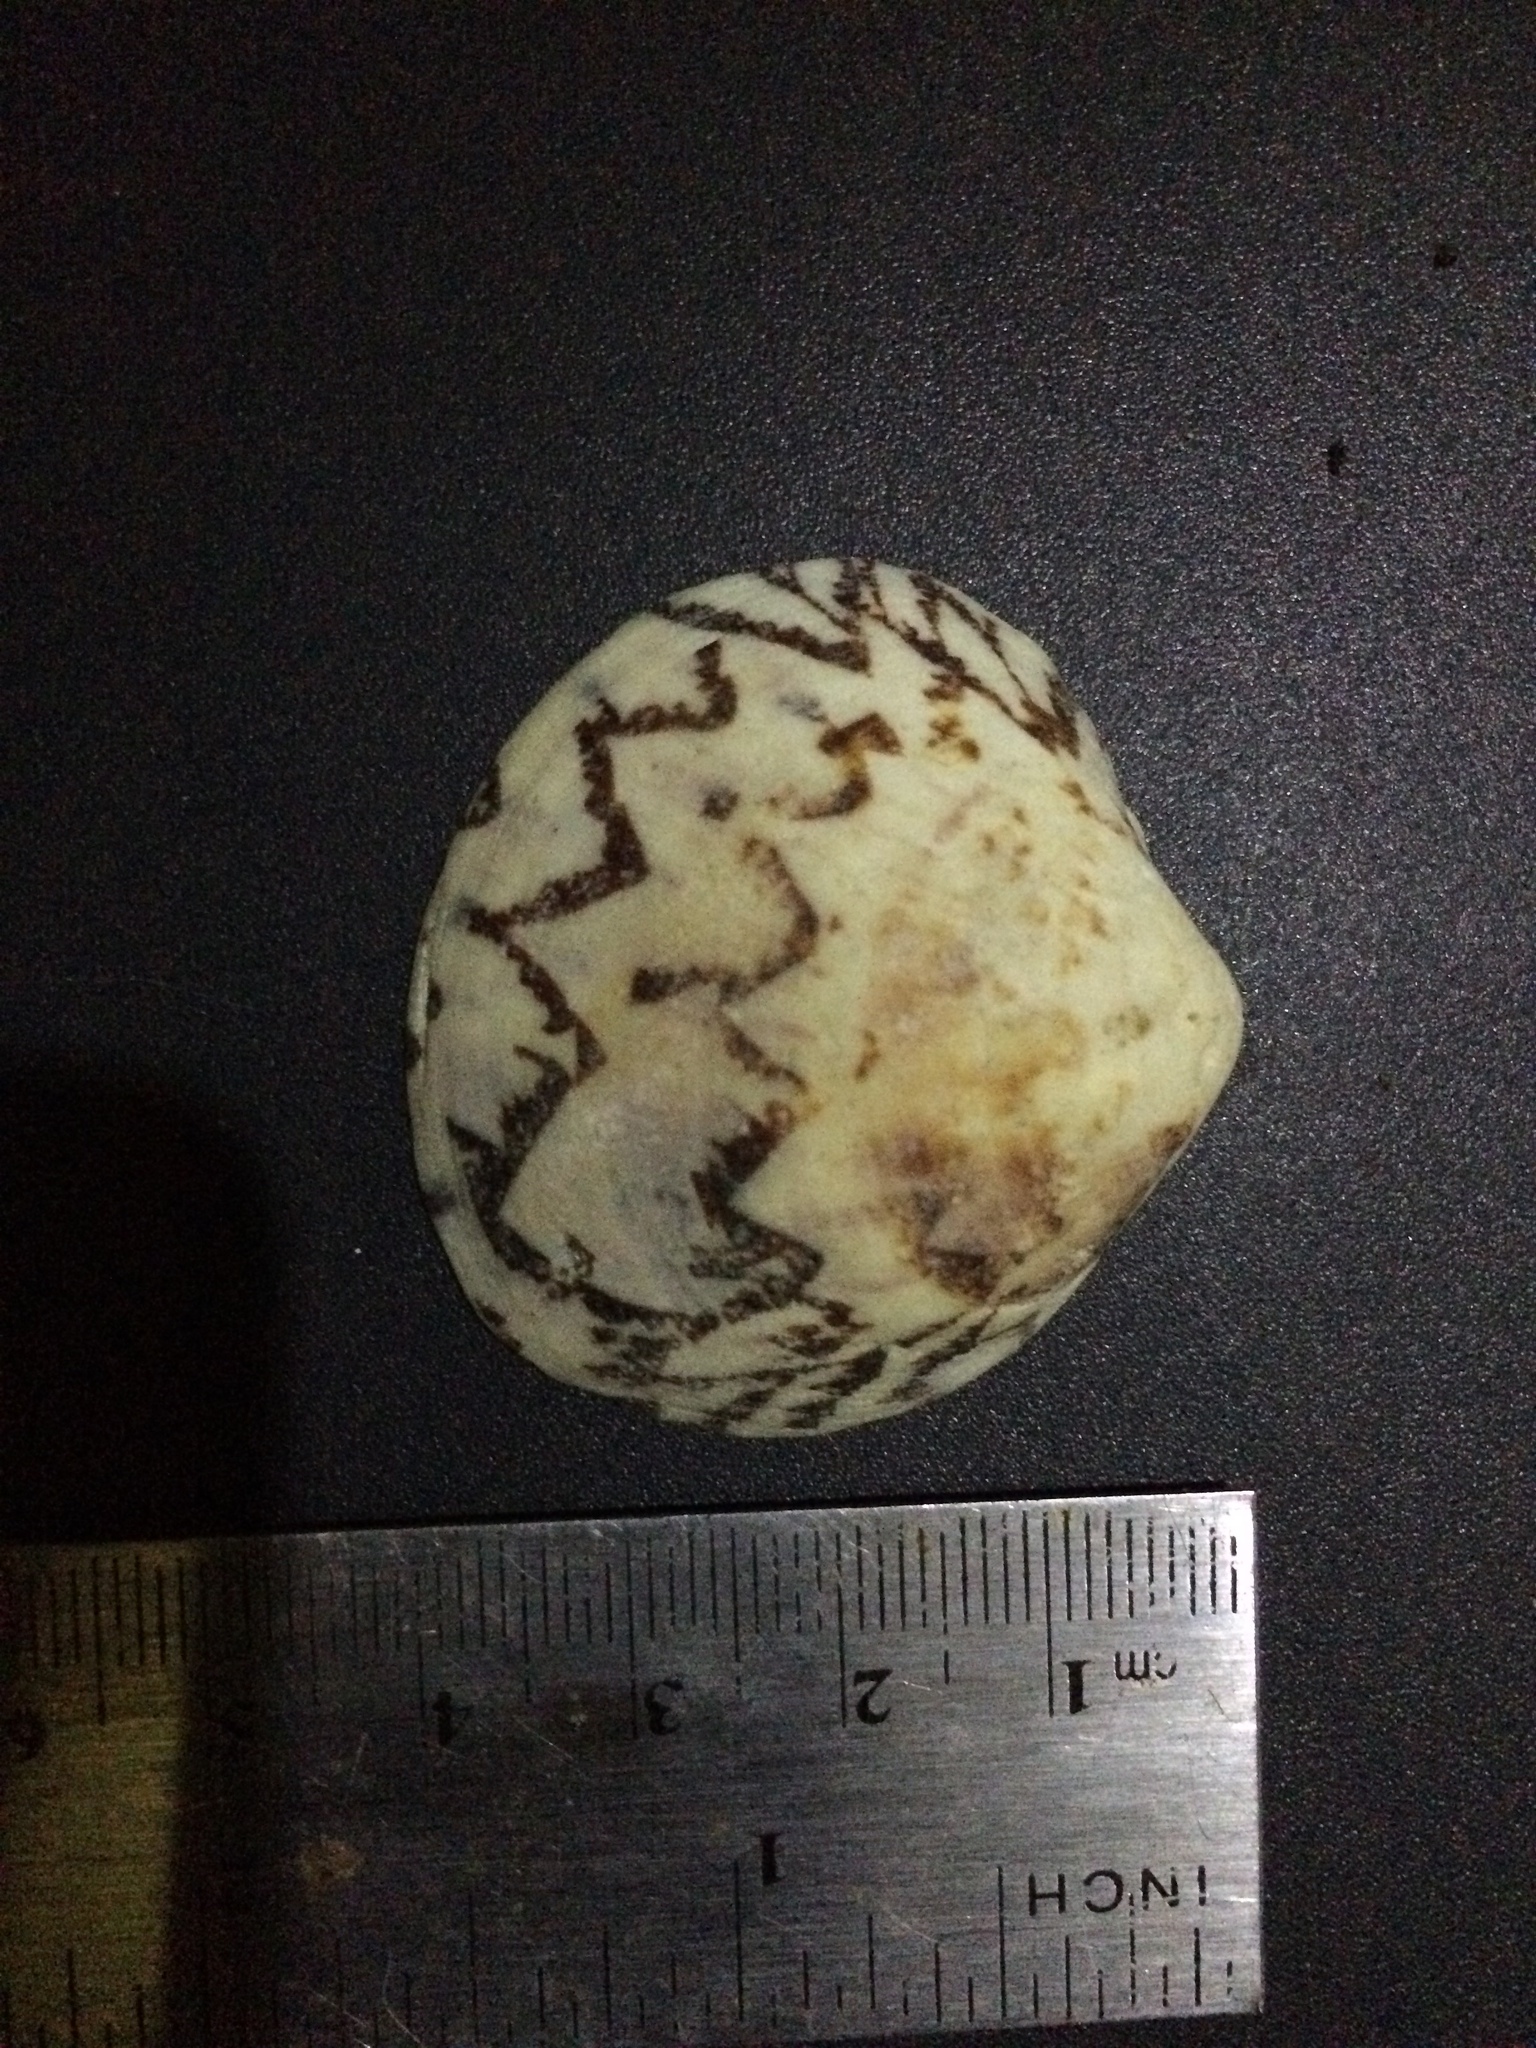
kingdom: Animalia
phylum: Mollusca
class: Bivalvia
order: Venerida
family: Veneridae
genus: Lioconcha
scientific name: Lioconcha castrensis
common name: Camp pitar-venus
